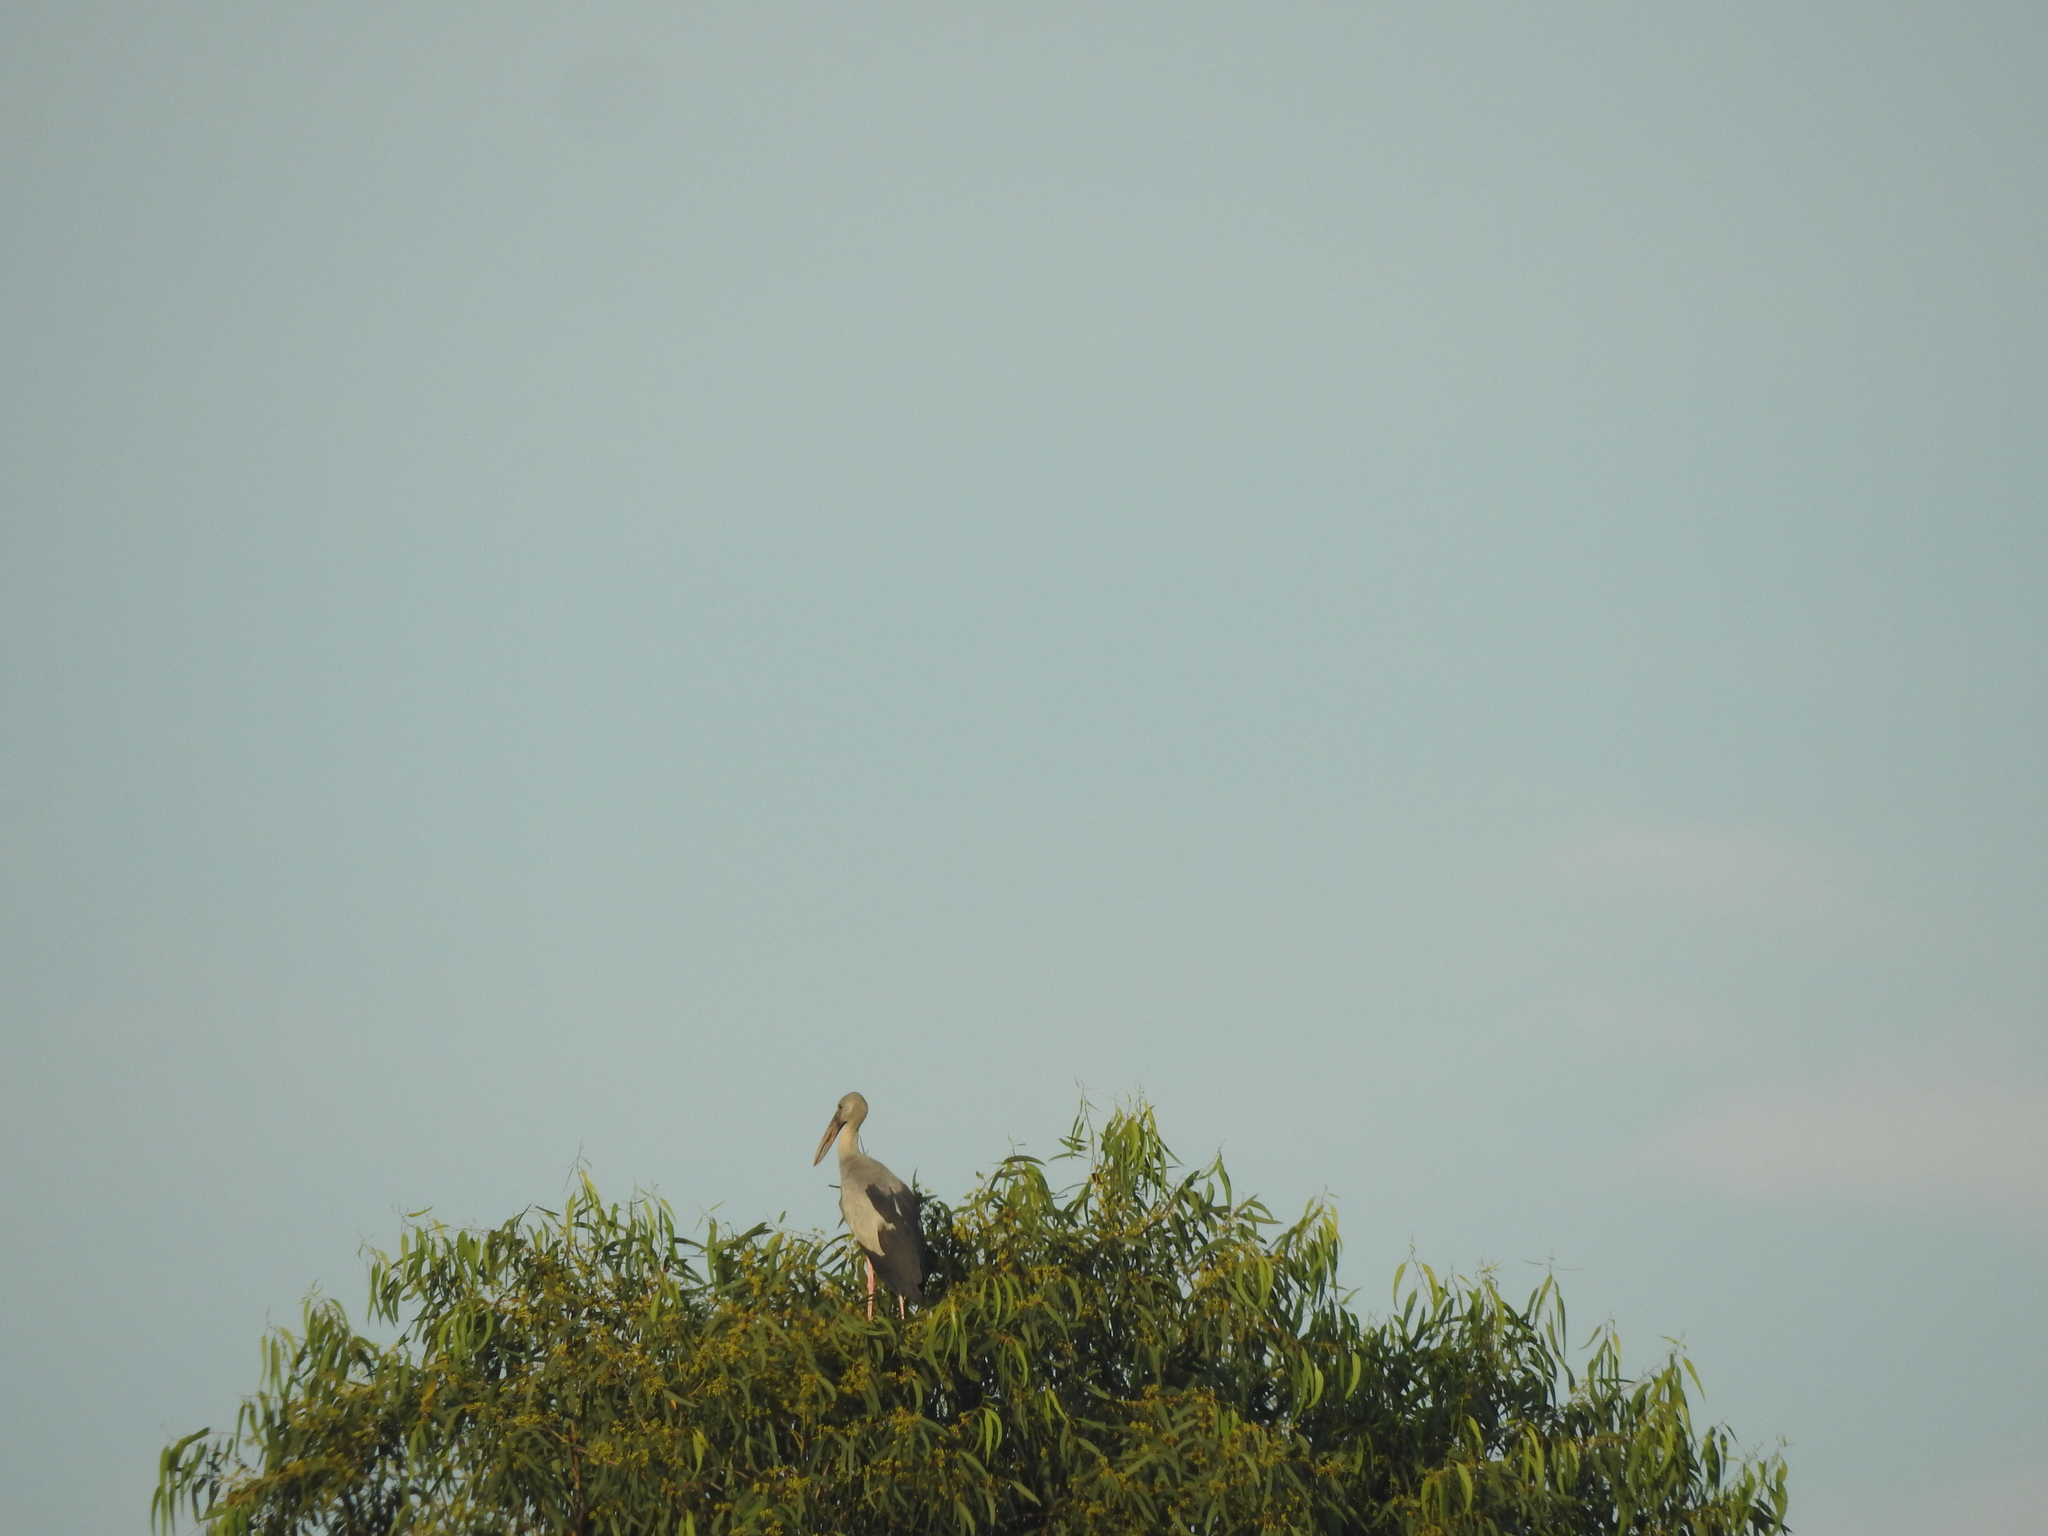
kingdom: Animalia
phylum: Chordata
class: Aves
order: Ciconiiformes
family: Ciconiidae
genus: Anastomus
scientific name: Anastomus oscitans
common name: Asian openbill
